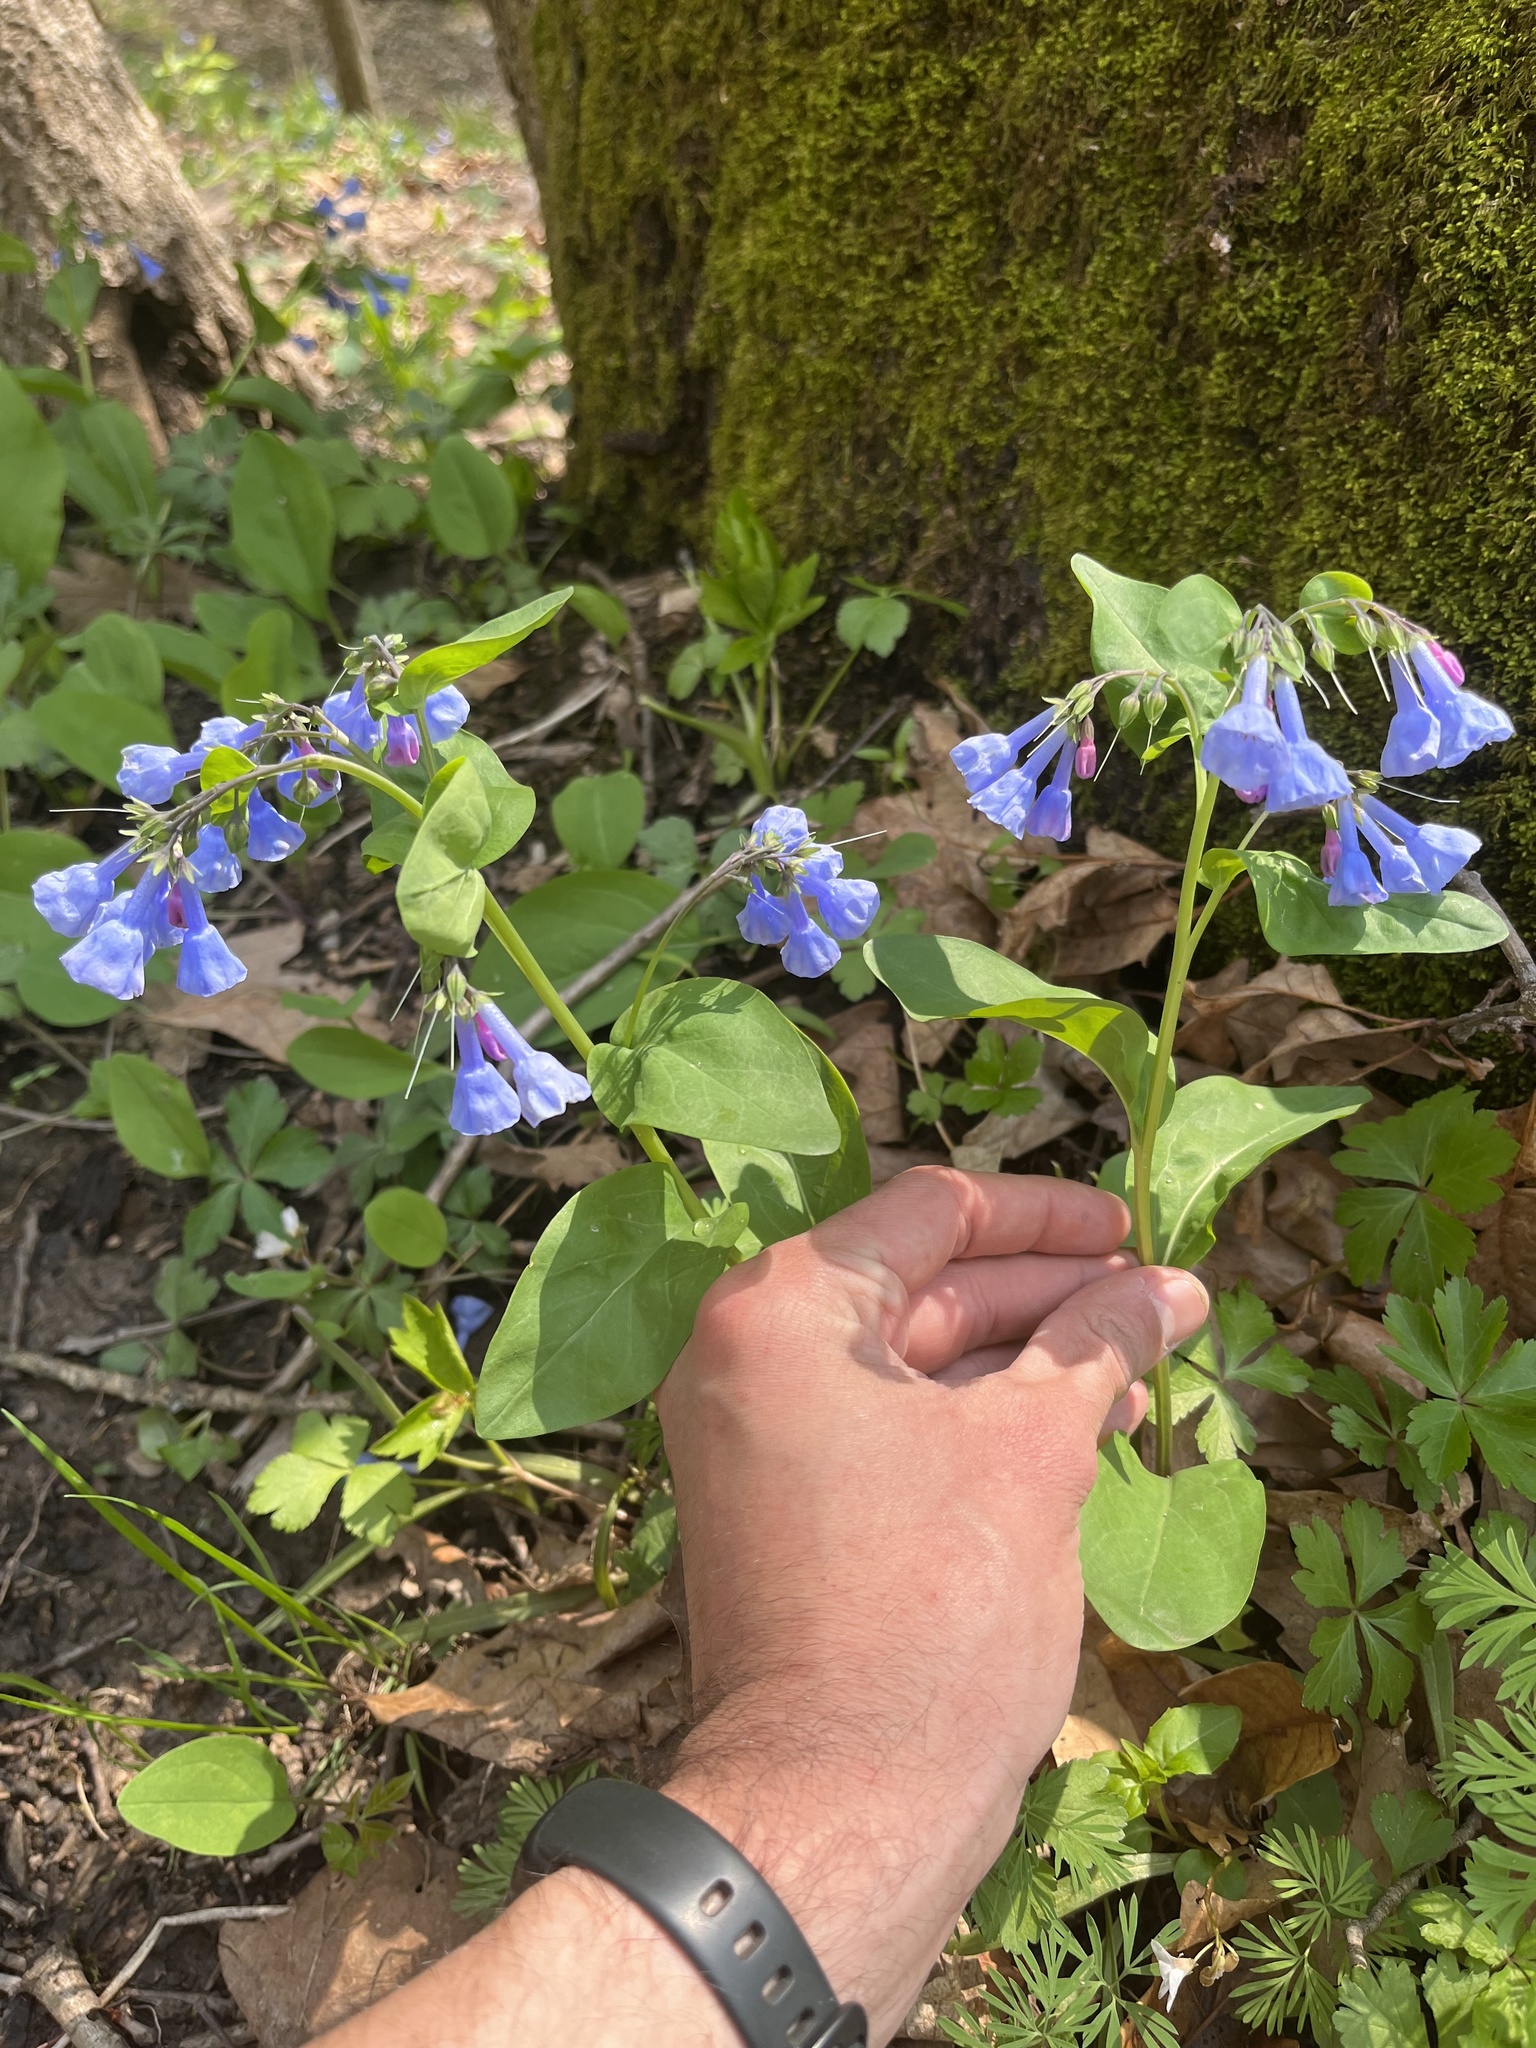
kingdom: Plantae
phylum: Tracheophyta
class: Magnoliopsida
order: Boraginales
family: Boraginaceae
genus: Mertensia
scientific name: Mertensia virginica
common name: Virginia bluebells
